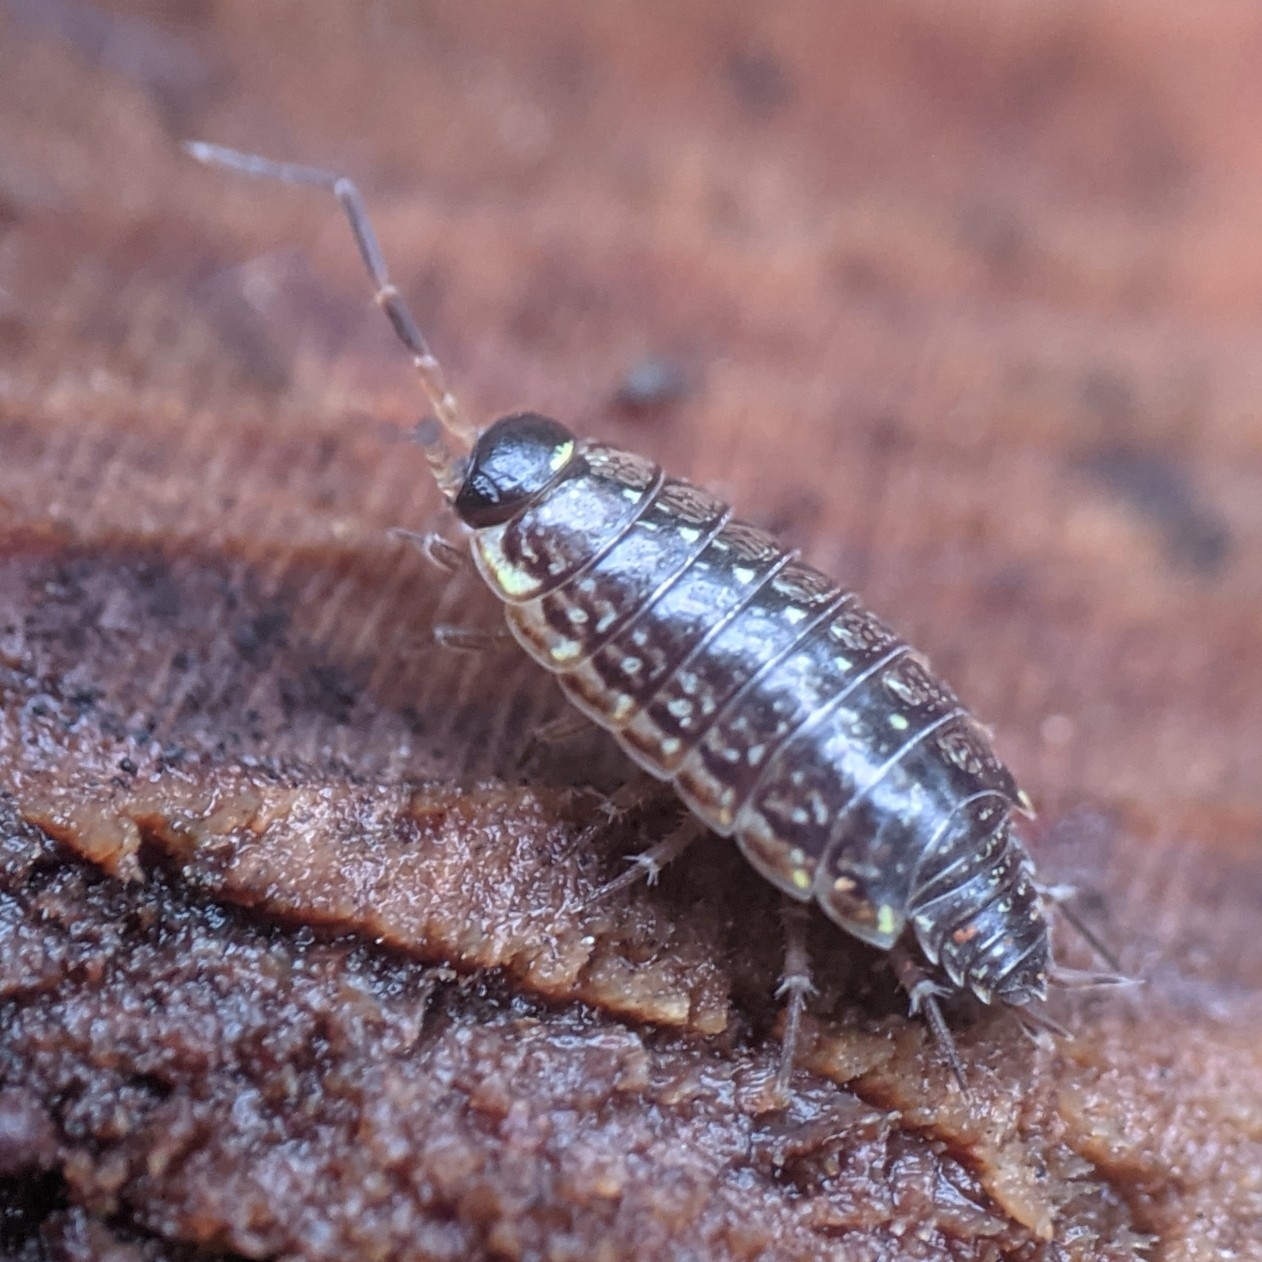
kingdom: Animalia
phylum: Arthropoda
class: Malacostraca
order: Isopoda
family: Philosciidae
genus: Philoscia
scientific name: Philoscia muscorum
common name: Common striped woodlouse
